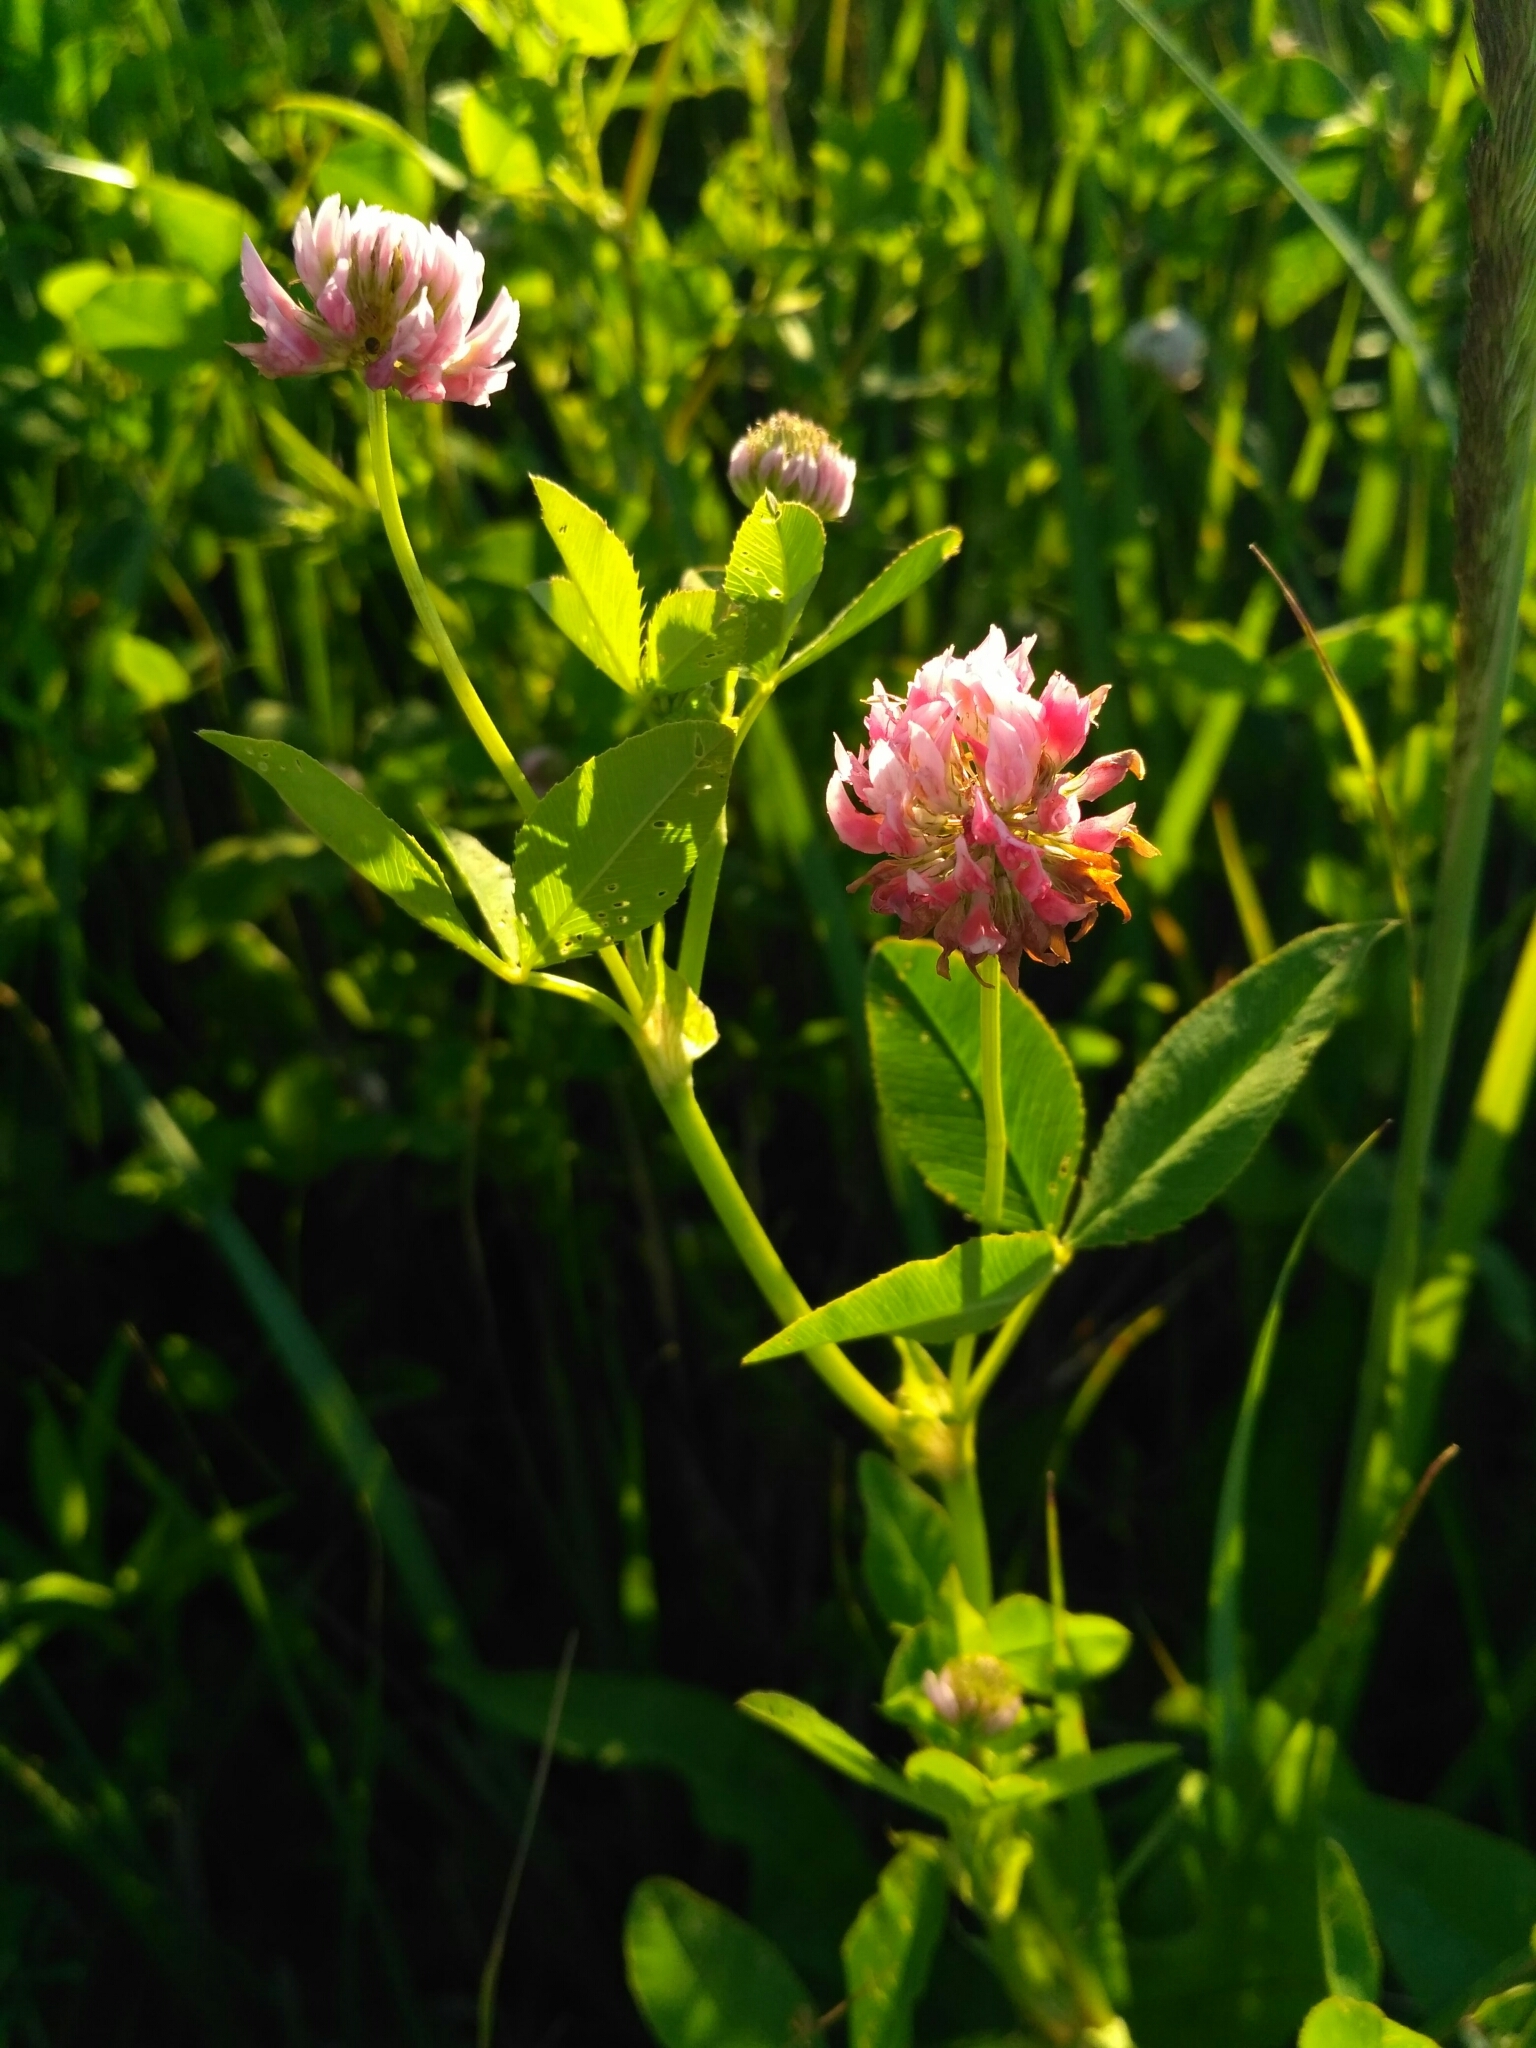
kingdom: Plantae
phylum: Tracheophyta
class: Magnoliopsida
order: Fabales
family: Fabaceae
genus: Trifolium
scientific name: Trifolium hybridum
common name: Alsike clover
